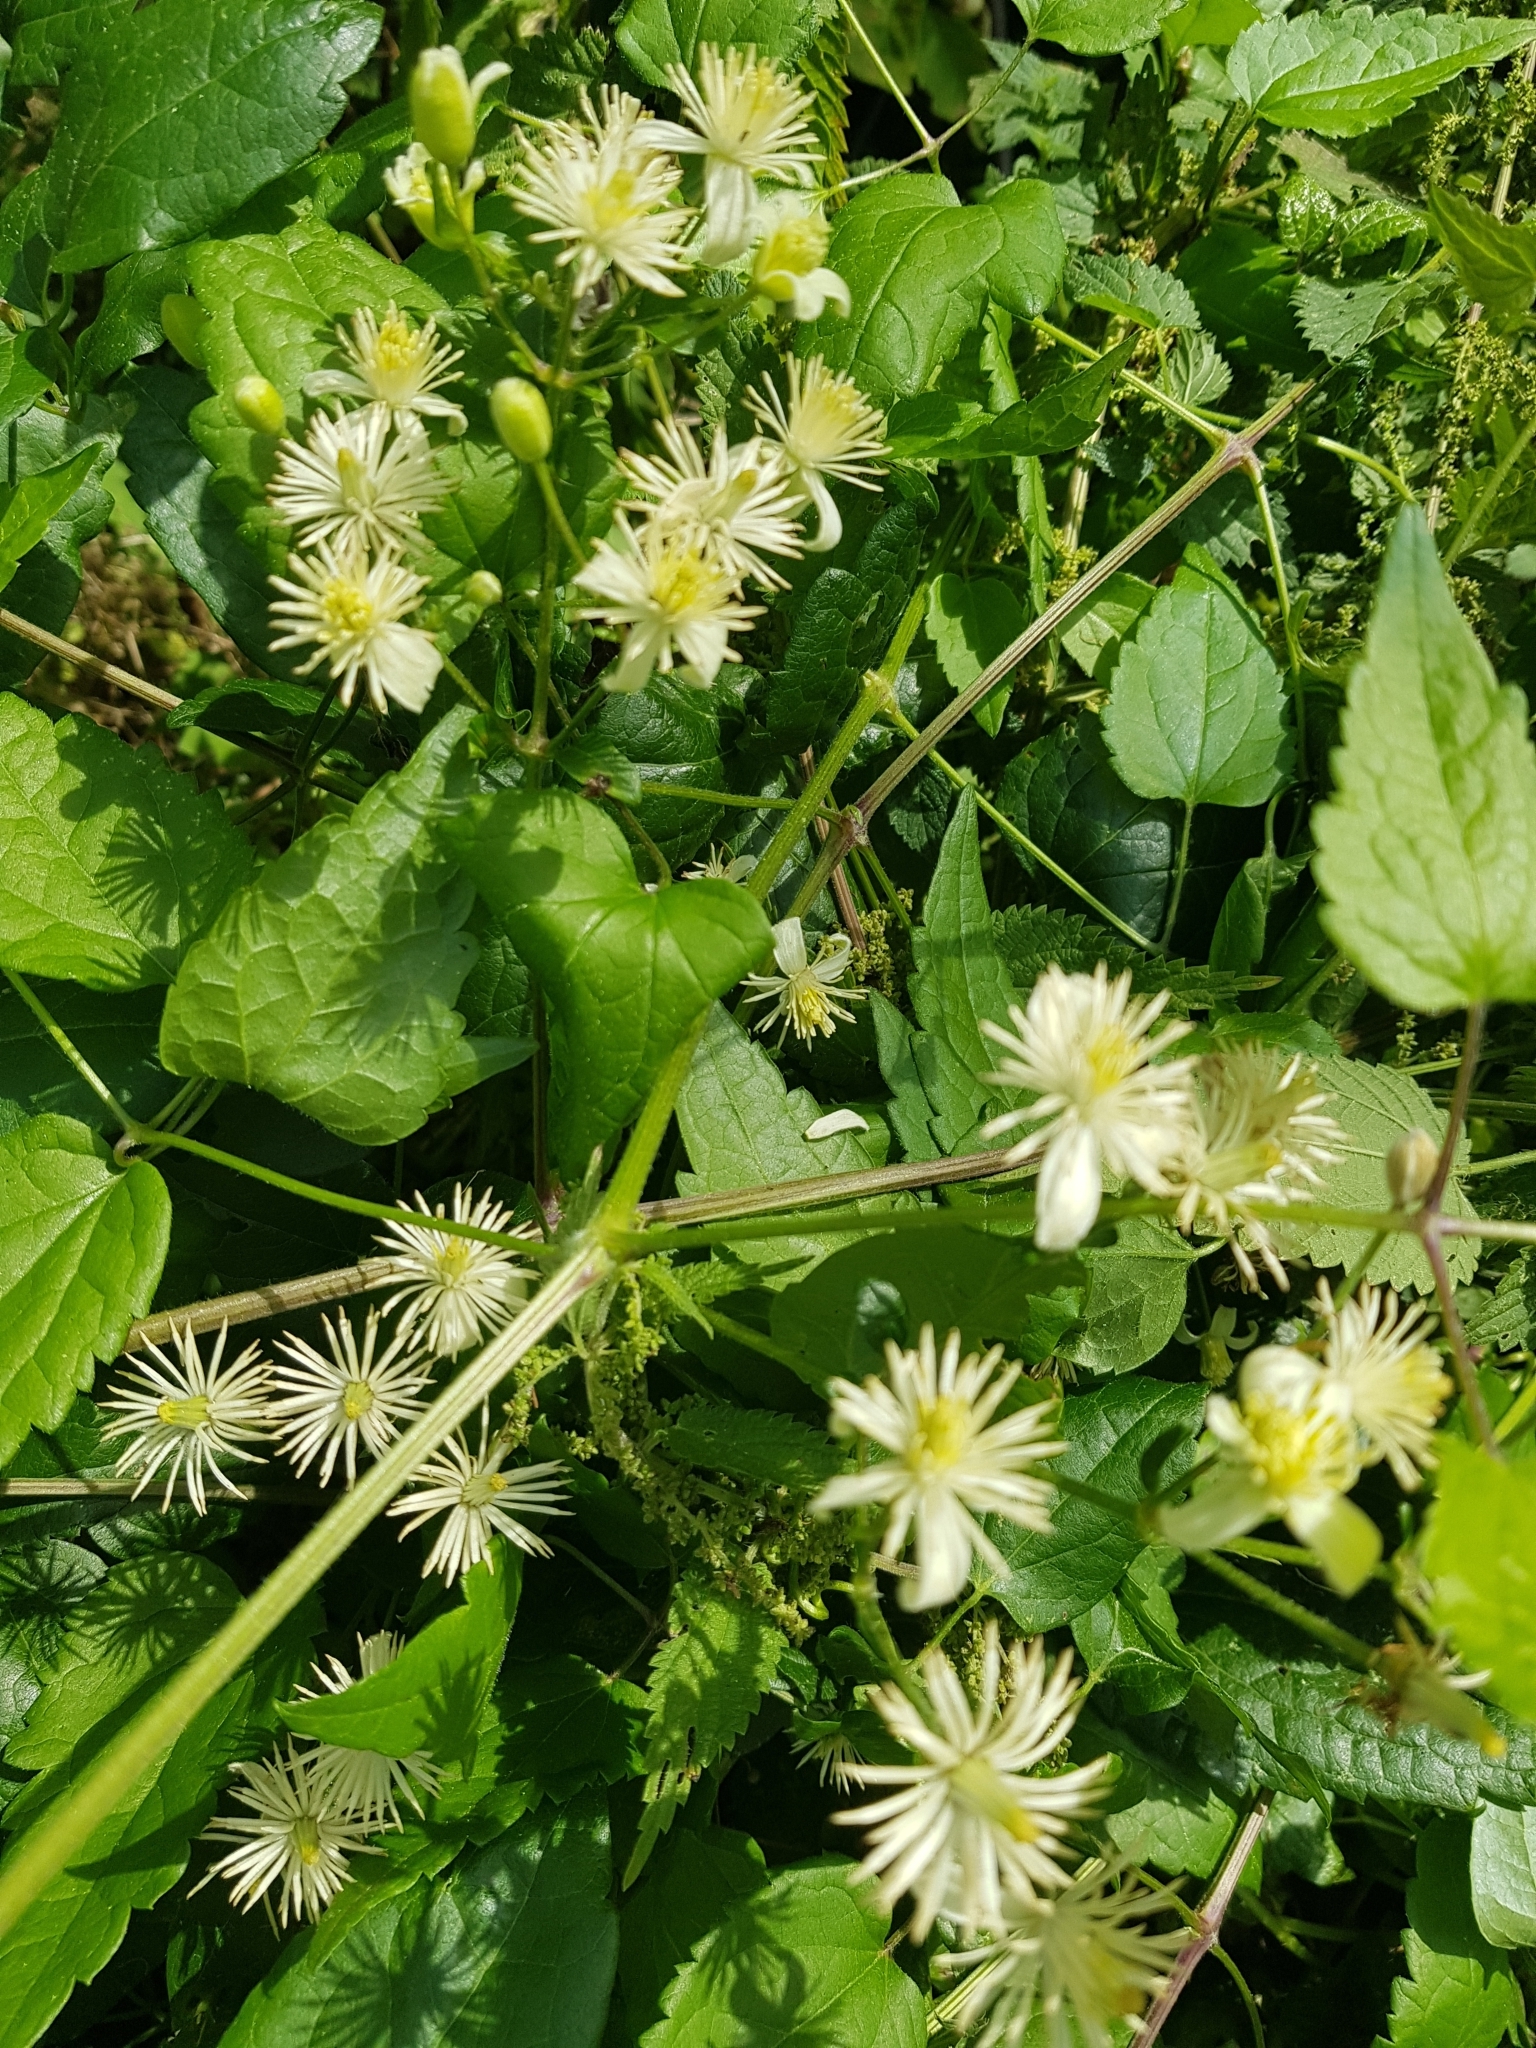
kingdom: Plantae
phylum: Tracheophyta
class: Magnoliopsida
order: Ranunculales
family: Ranunculaceae
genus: Clematis
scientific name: Clematis vitalba
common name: Evergreen clematis
